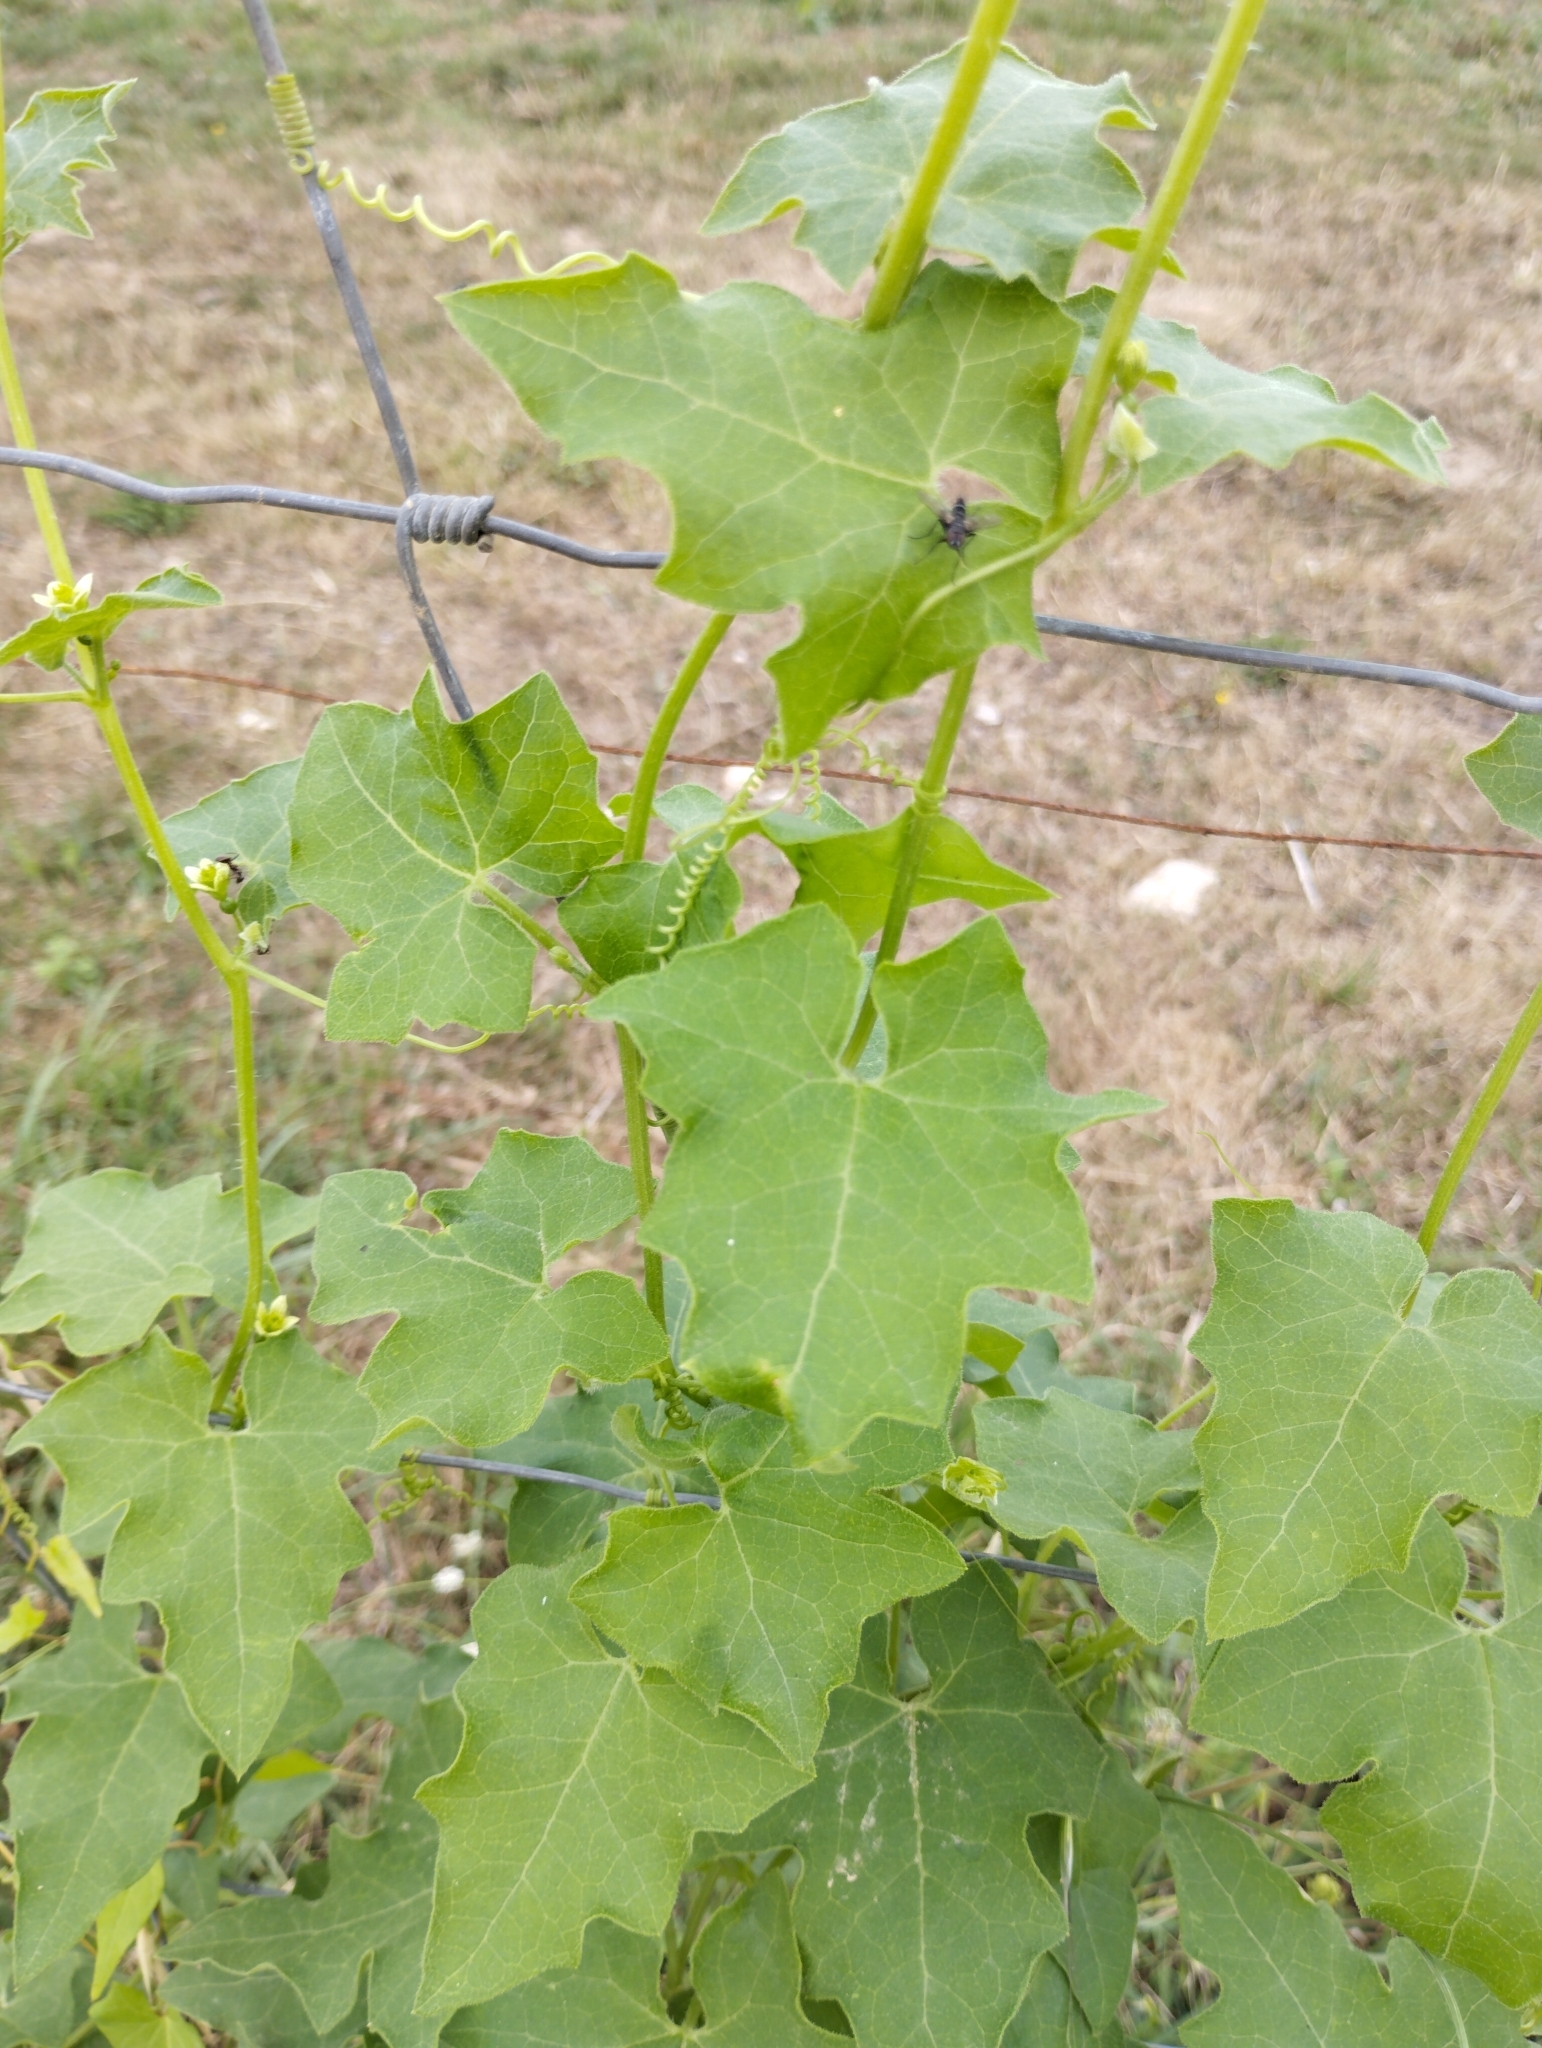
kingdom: Plantae
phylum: Tracheophyta
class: Magnoliopsida
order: Cucurbitales
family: Cucurbitaceae
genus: Bryonia
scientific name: Bryonia cretica
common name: Cretan bryony
